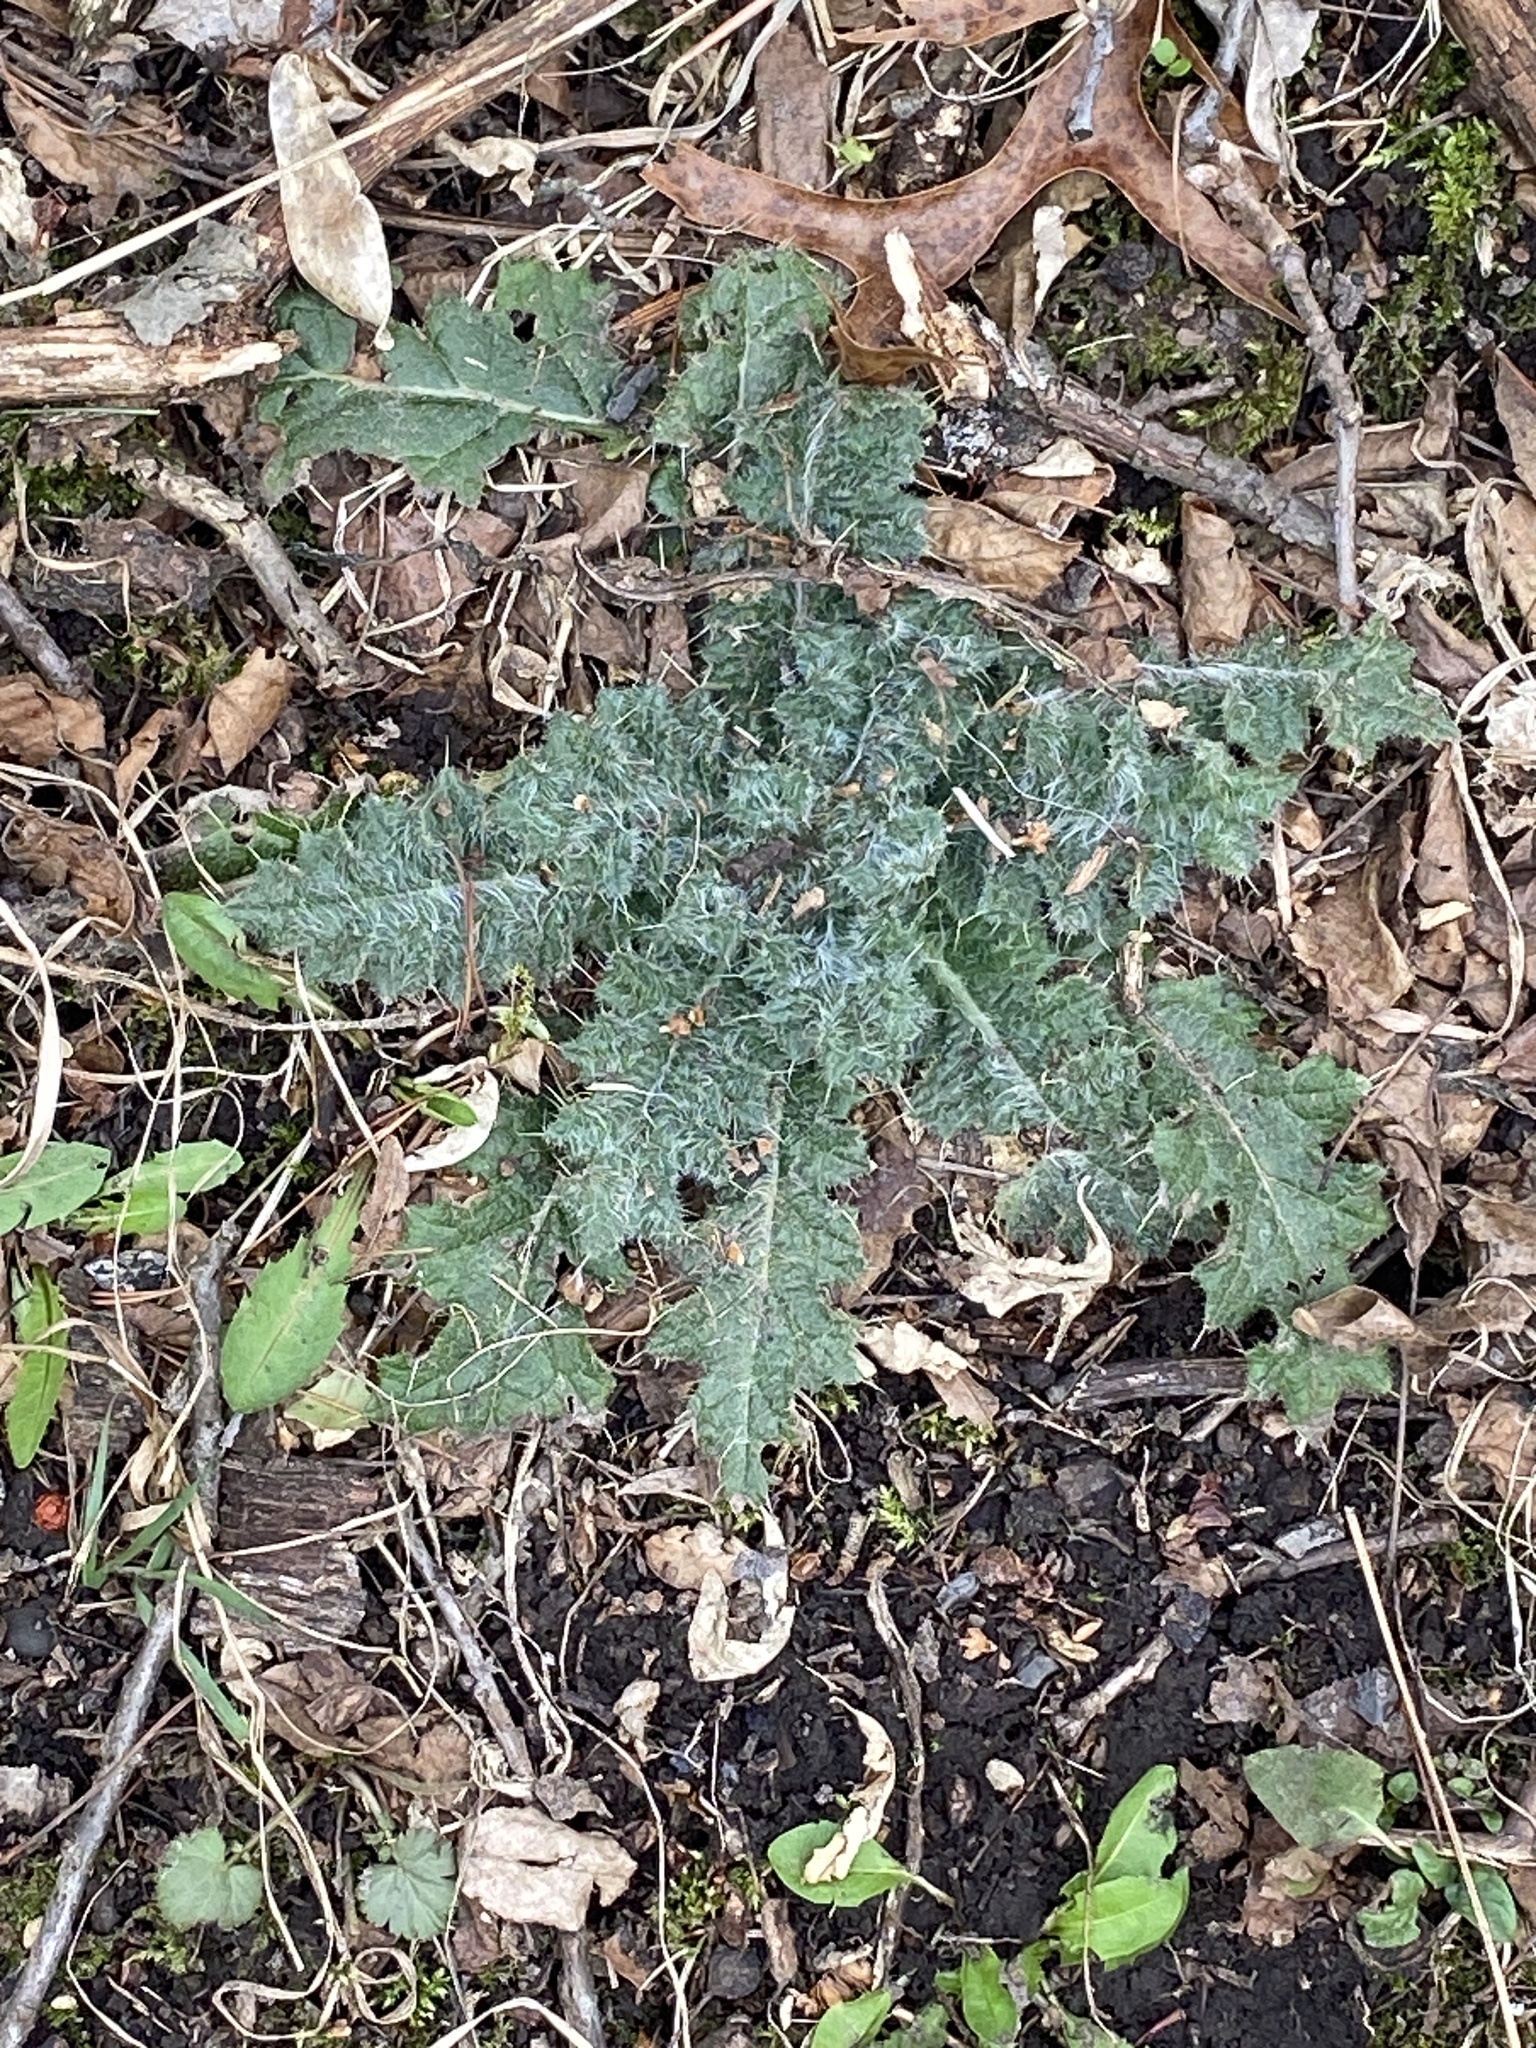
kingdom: Plantae
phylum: Tracheophyta
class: Magnoliopsida
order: Asterales
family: Asteraceae
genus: Cirsium
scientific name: Cirsium vulgare
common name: Bull thistle
